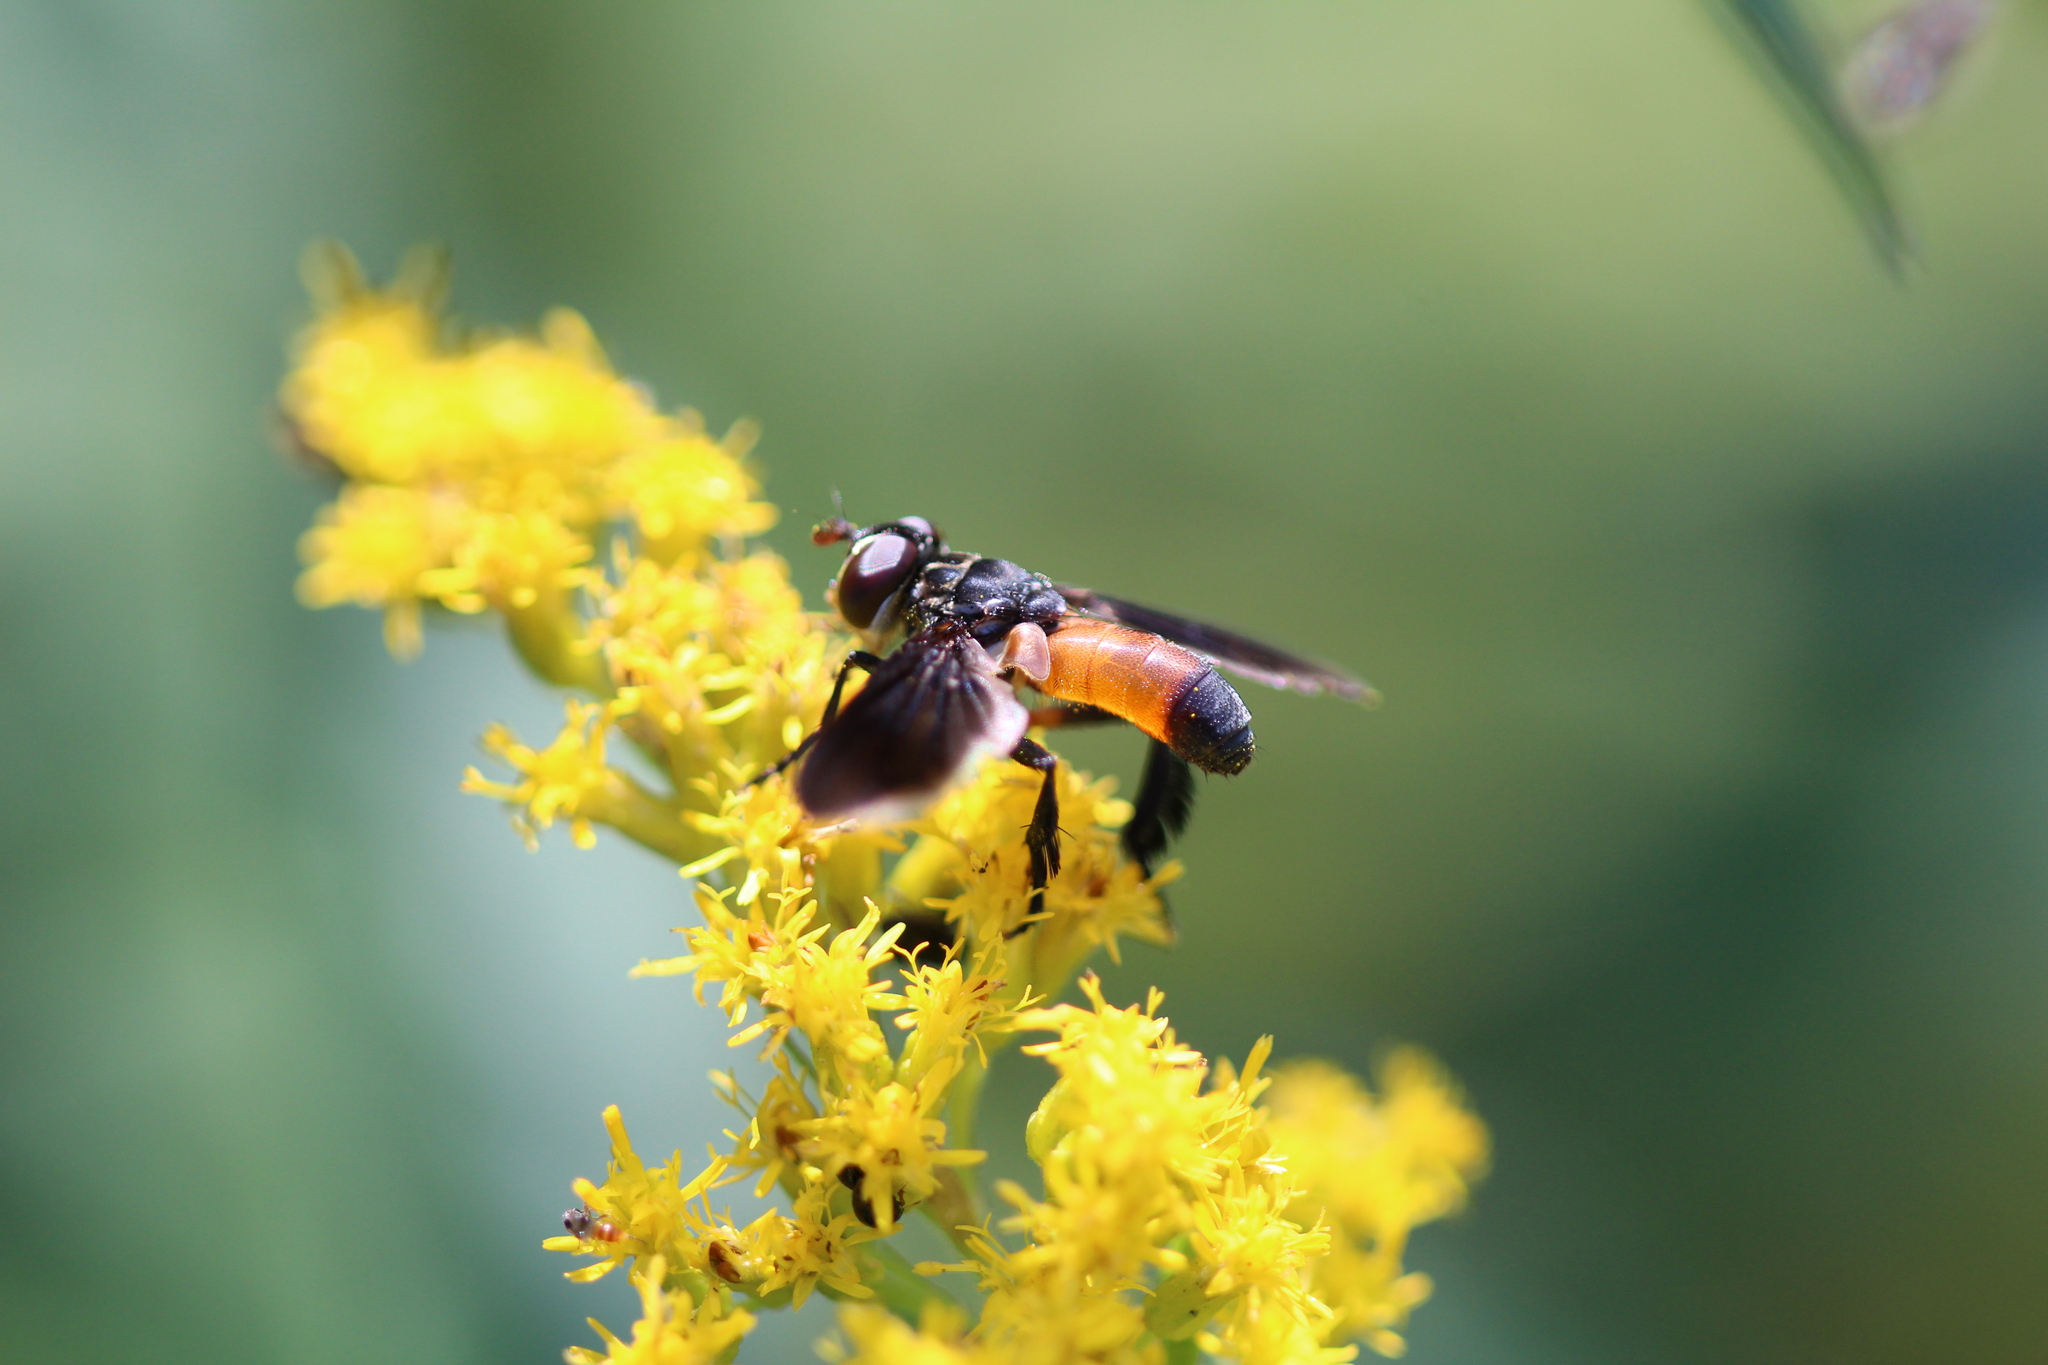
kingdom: Animalia
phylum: Arthropoda
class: Insecta
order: Diptera
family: Tachinidae
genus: Trichopoda
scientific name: Trichopoda pennipes
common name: Tachinid fly
